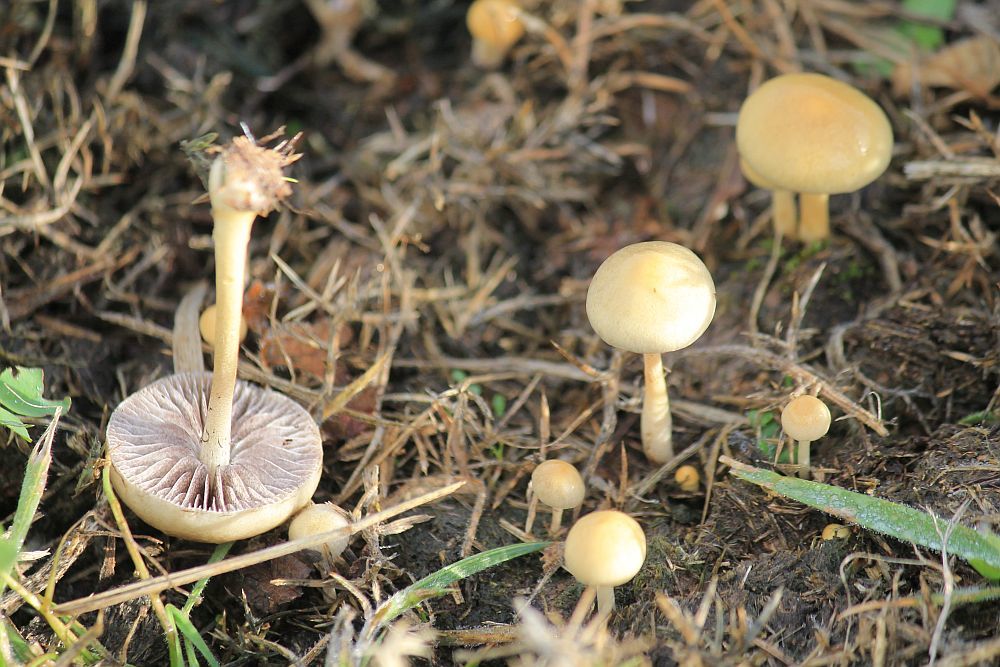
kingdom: Fungi
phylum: Basidiomycota
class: Agaricomycetes
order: Agaricales
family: Strophariaceae
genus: Protostropharia
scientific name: Protostropharia semiglobata
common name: Dung roundhead
